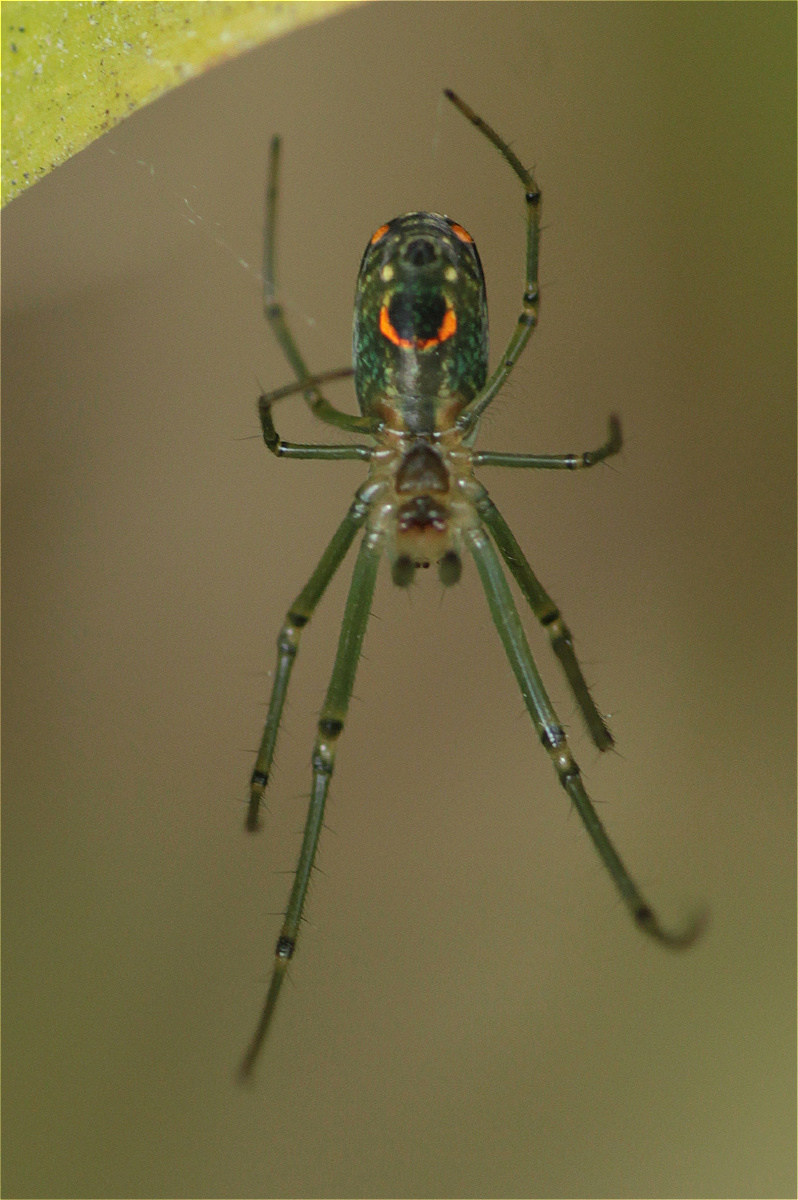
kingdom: Animalia
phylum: Arthropoda
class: Arachnida
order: Araneae
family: Tetragnathidae
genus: Leucauge
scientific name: Leucauge argyrobapta
